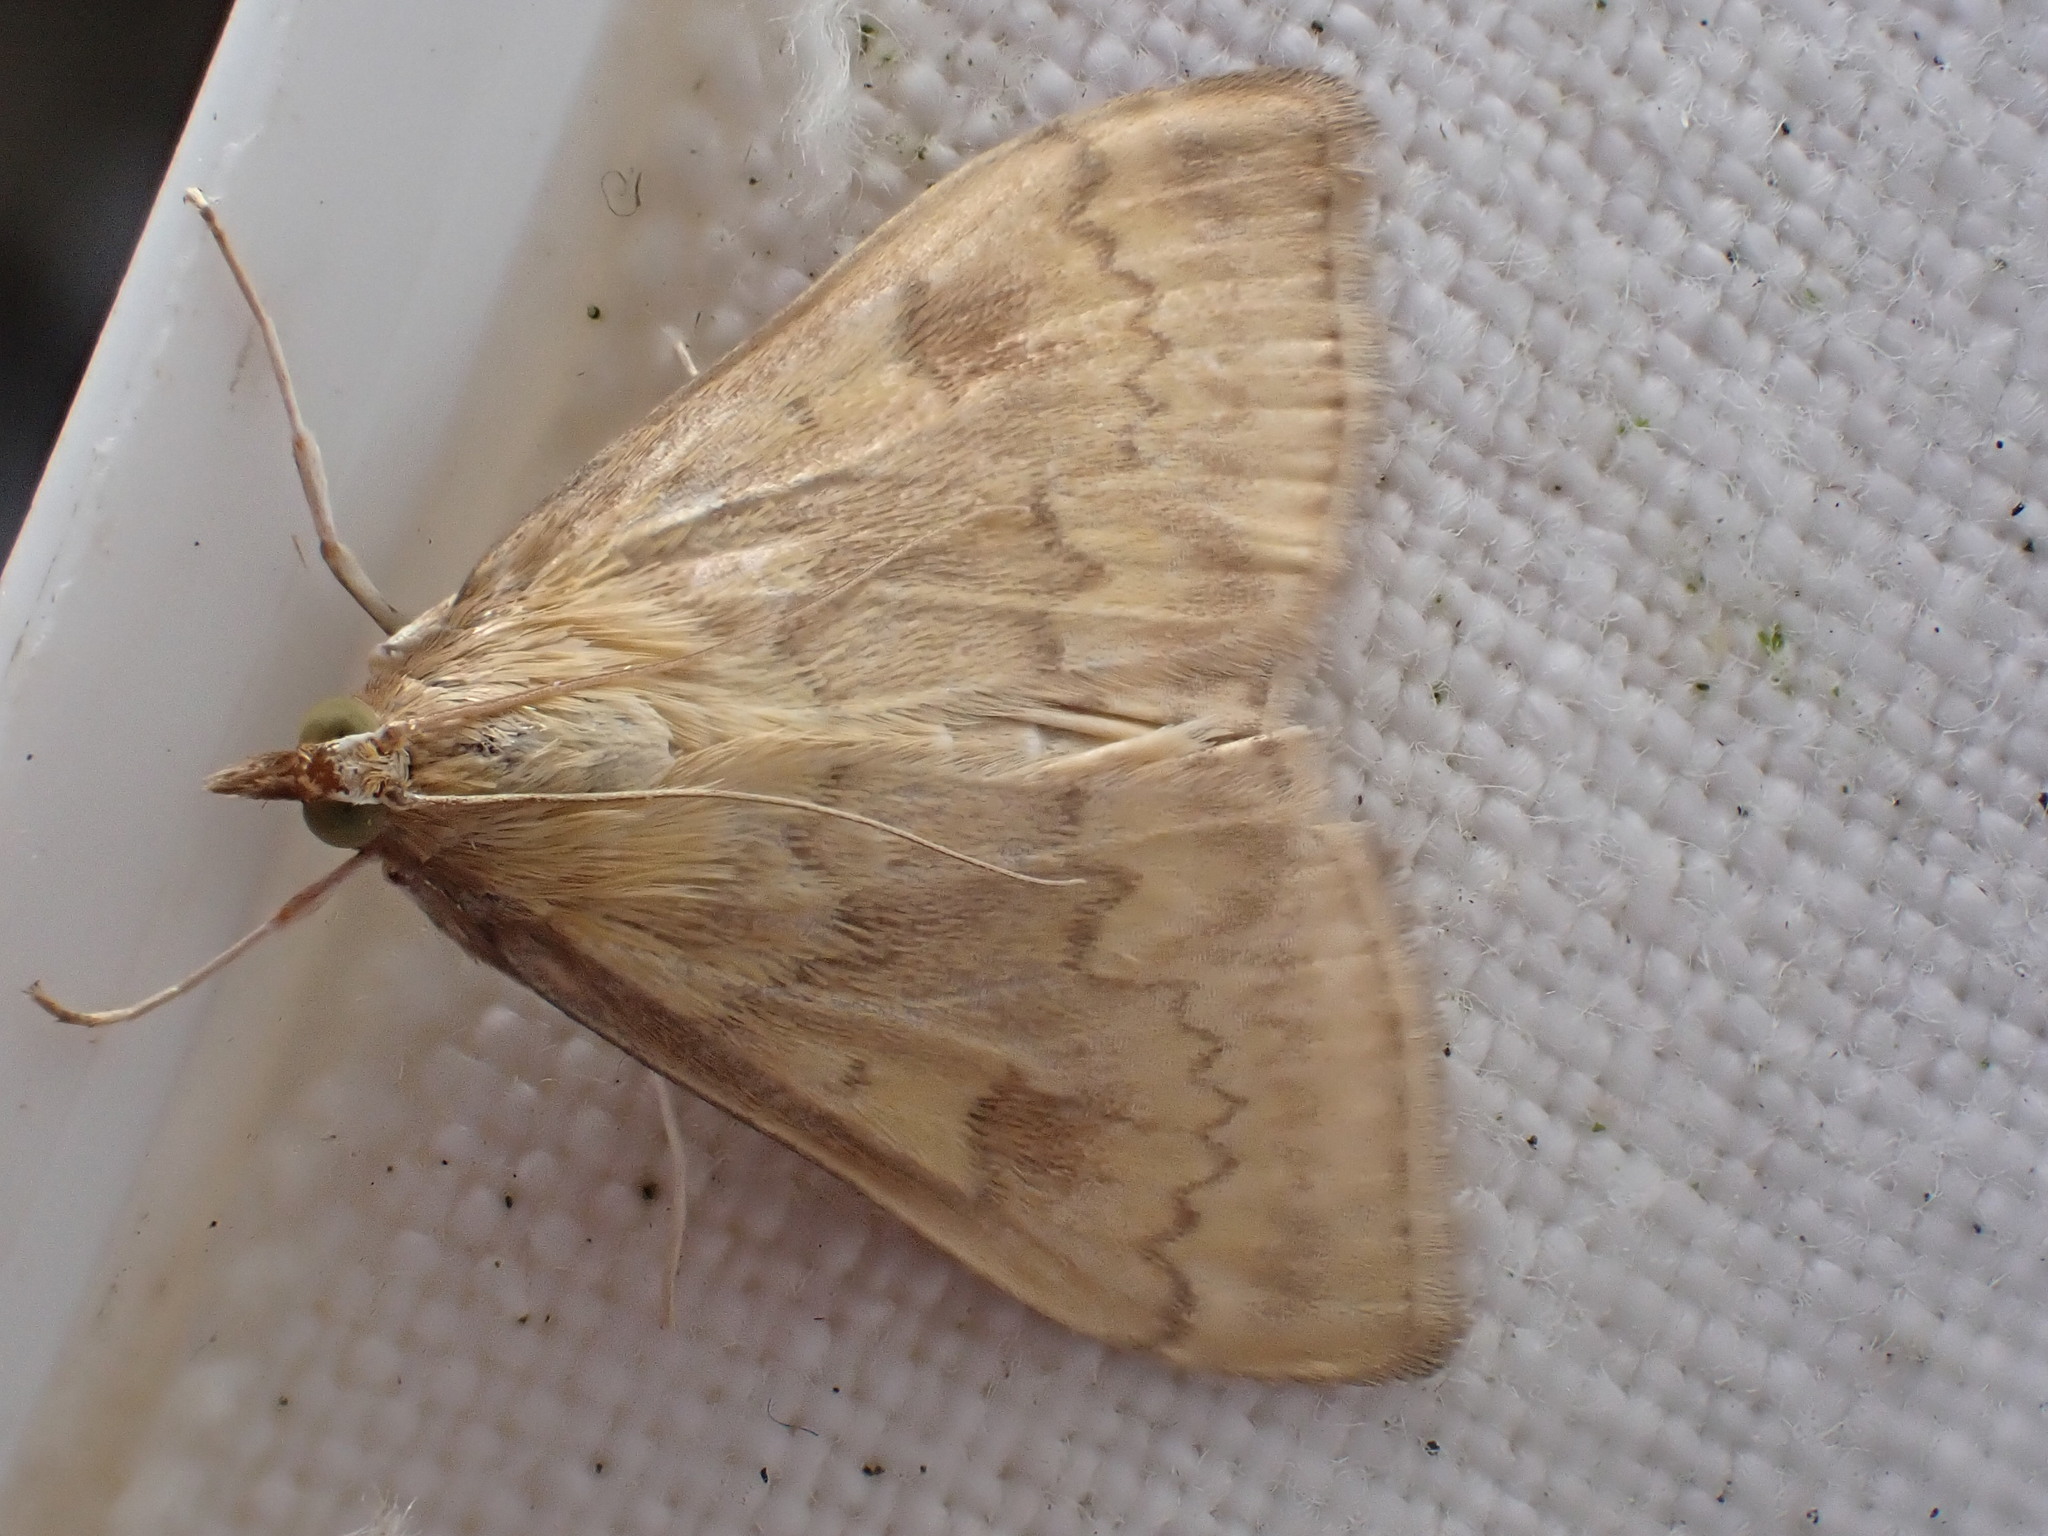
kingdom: Animalia
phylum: Arthropoda
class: Insecta
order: Lepidoptera
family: Crambidae
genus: Ostrinia
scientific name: Ostrinia nubilalis
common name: European corn borer
